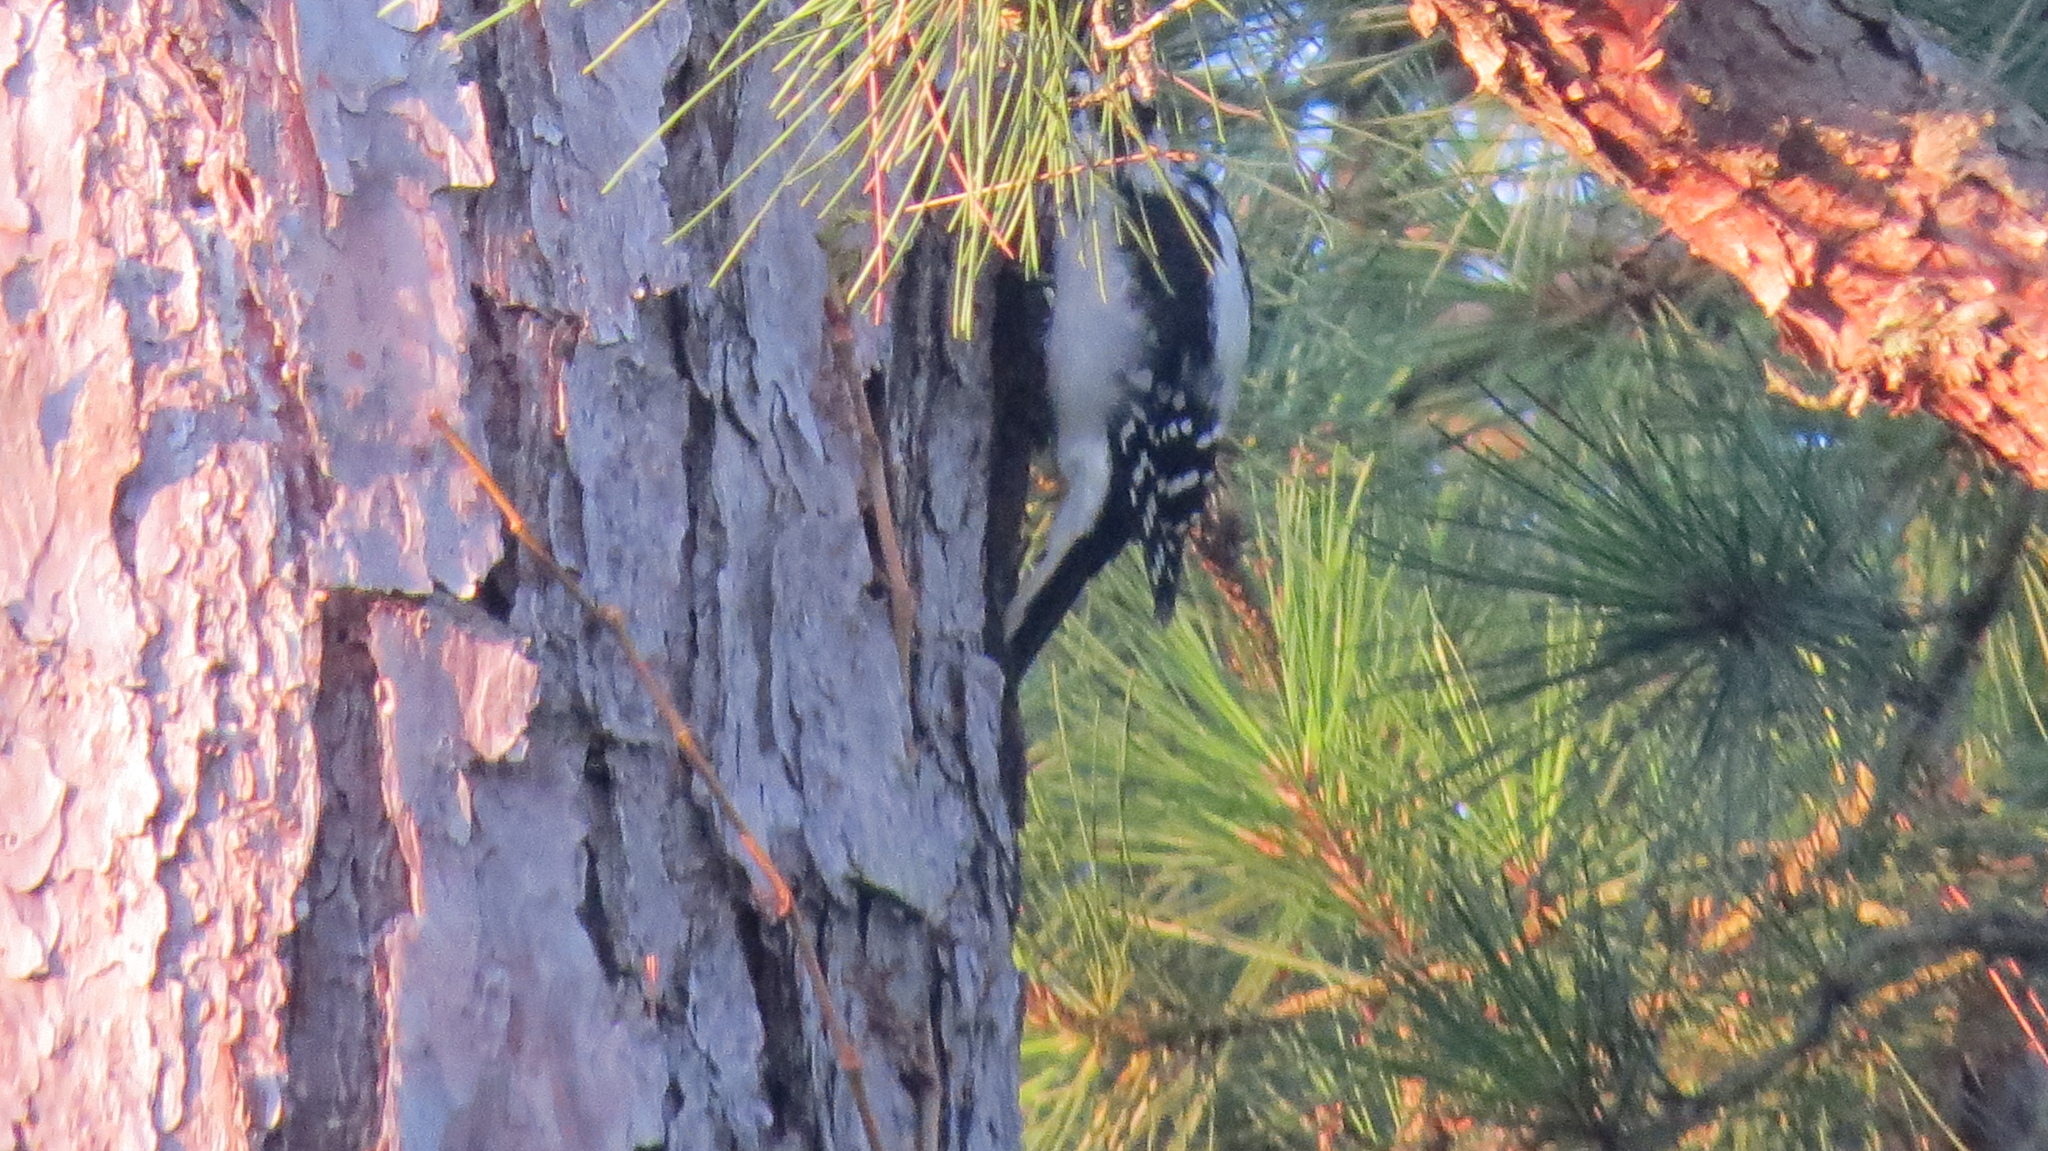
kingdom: Animalia
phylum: Chordata
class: Aves
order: Piciformes
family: Picidae
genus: Leuconotopicus
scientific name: Leuconotopicus villosus
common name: Hairy woodpecker
